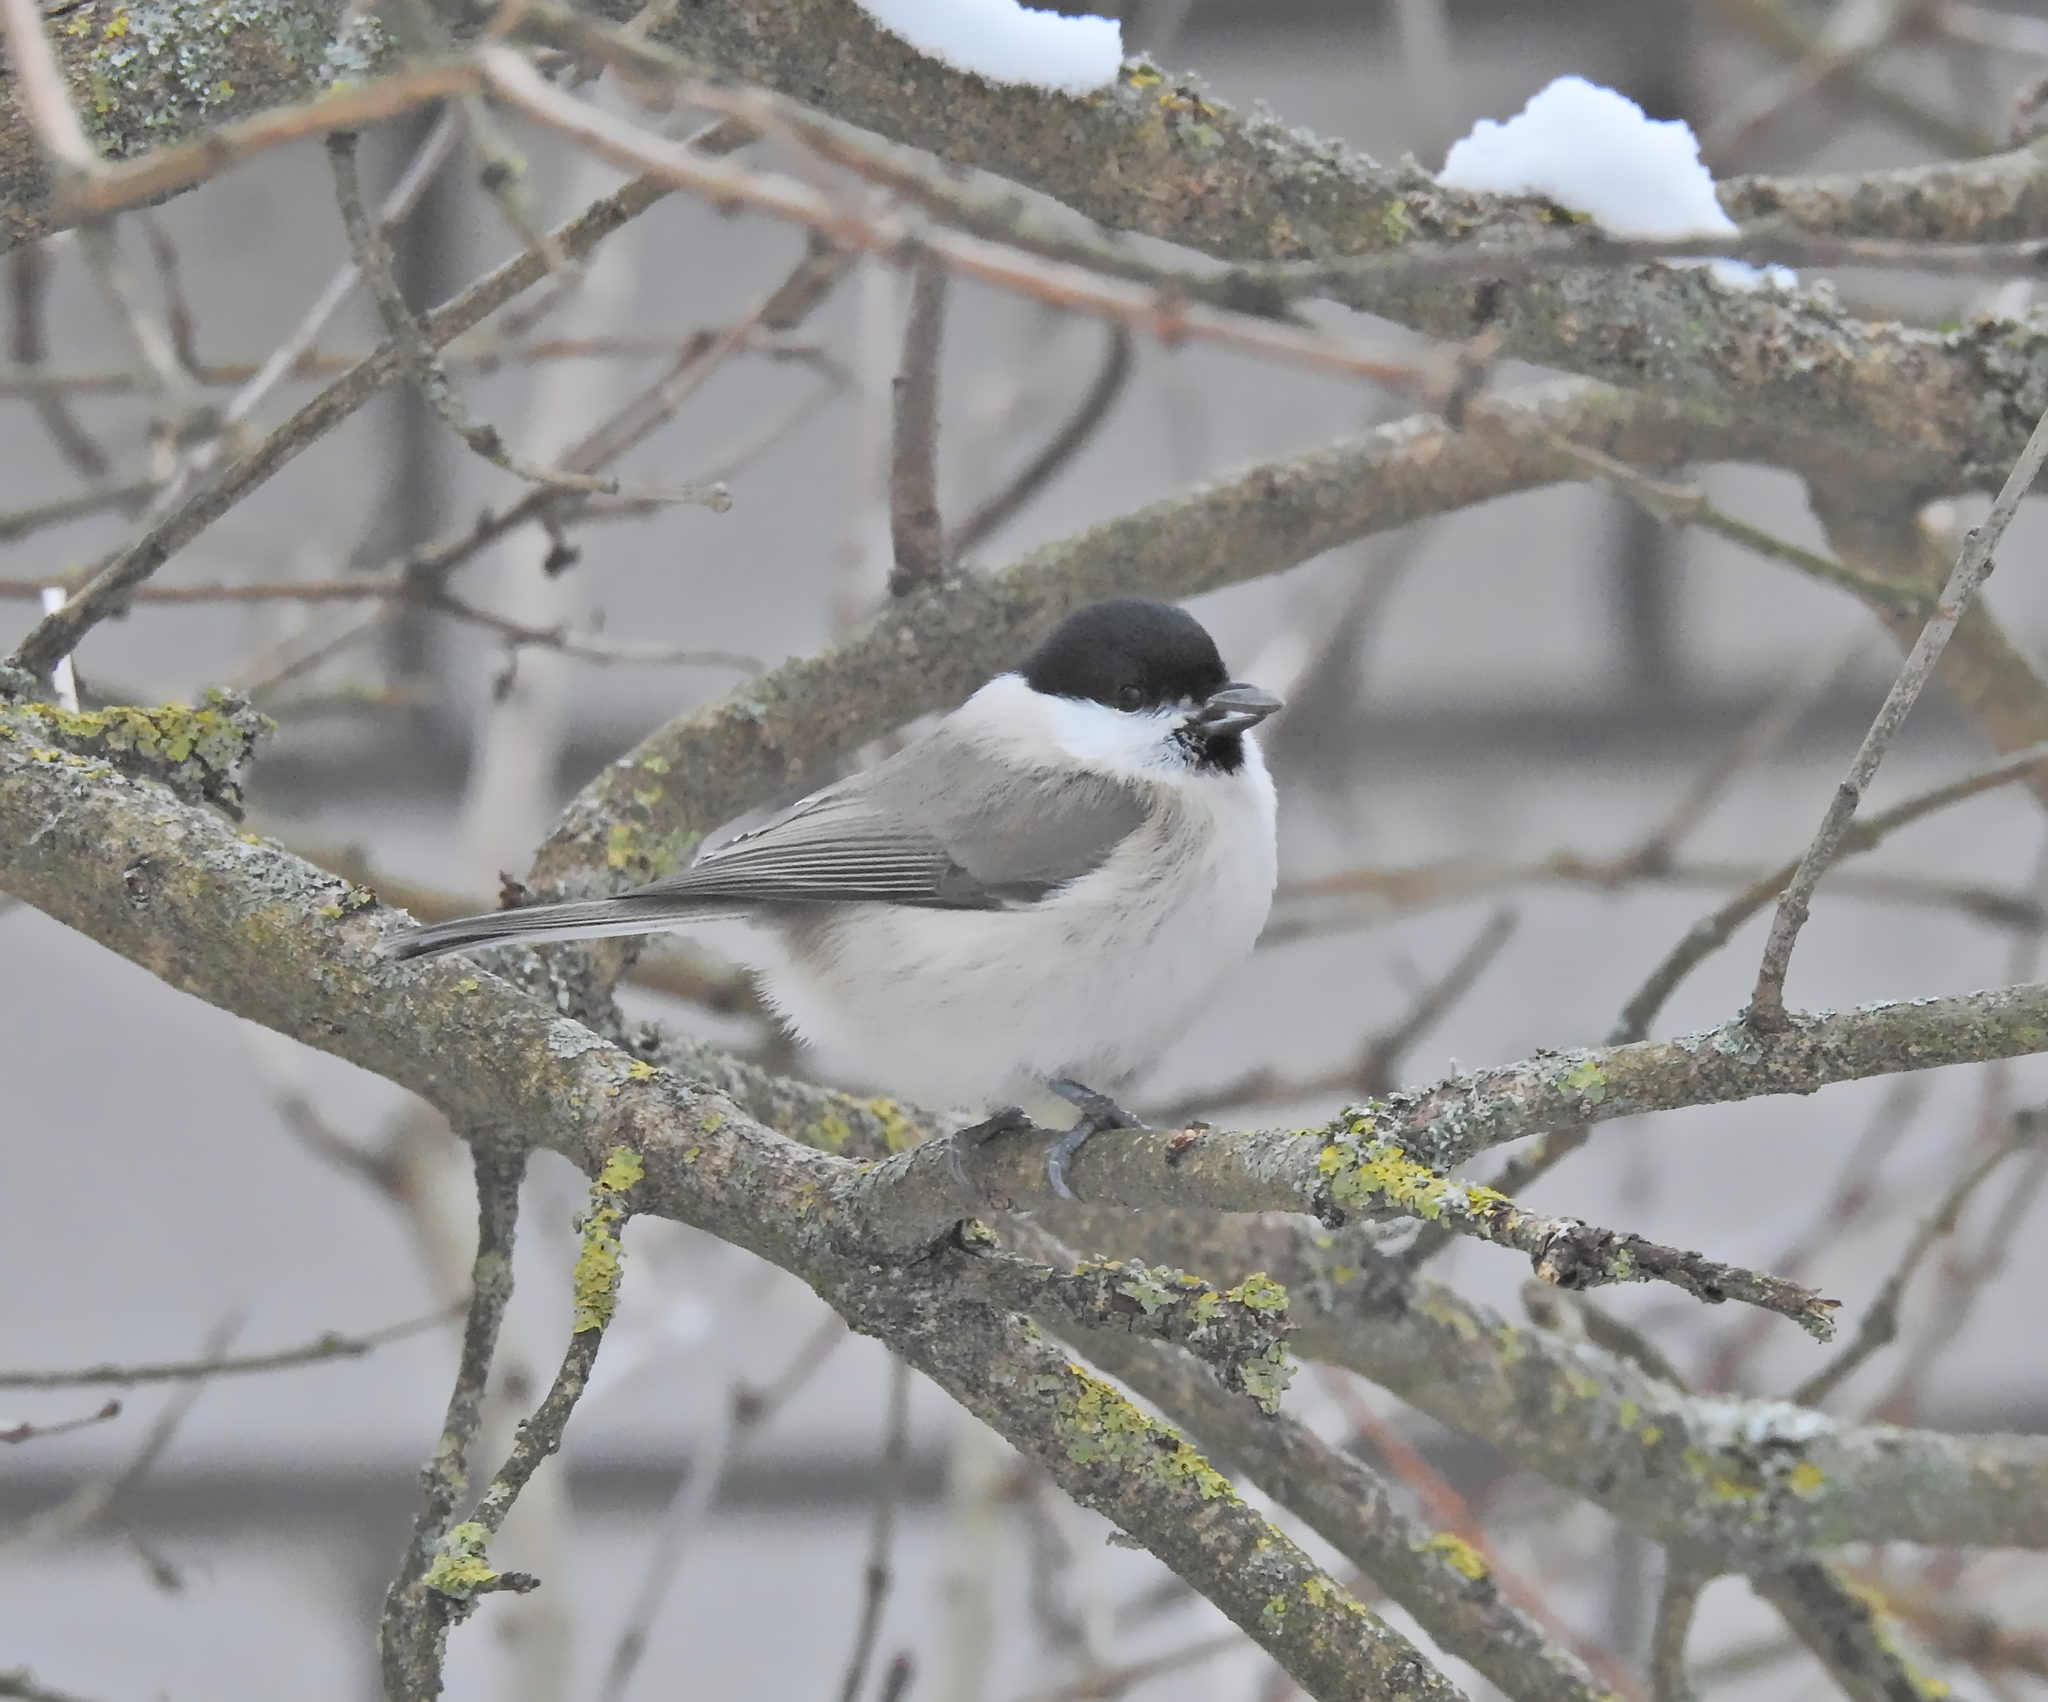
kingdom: Animalia
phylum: Chordata
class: Aves
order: Passeriformes
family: Paridae
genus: Poecile
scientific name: Poecile palustris
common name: Marsh tit
